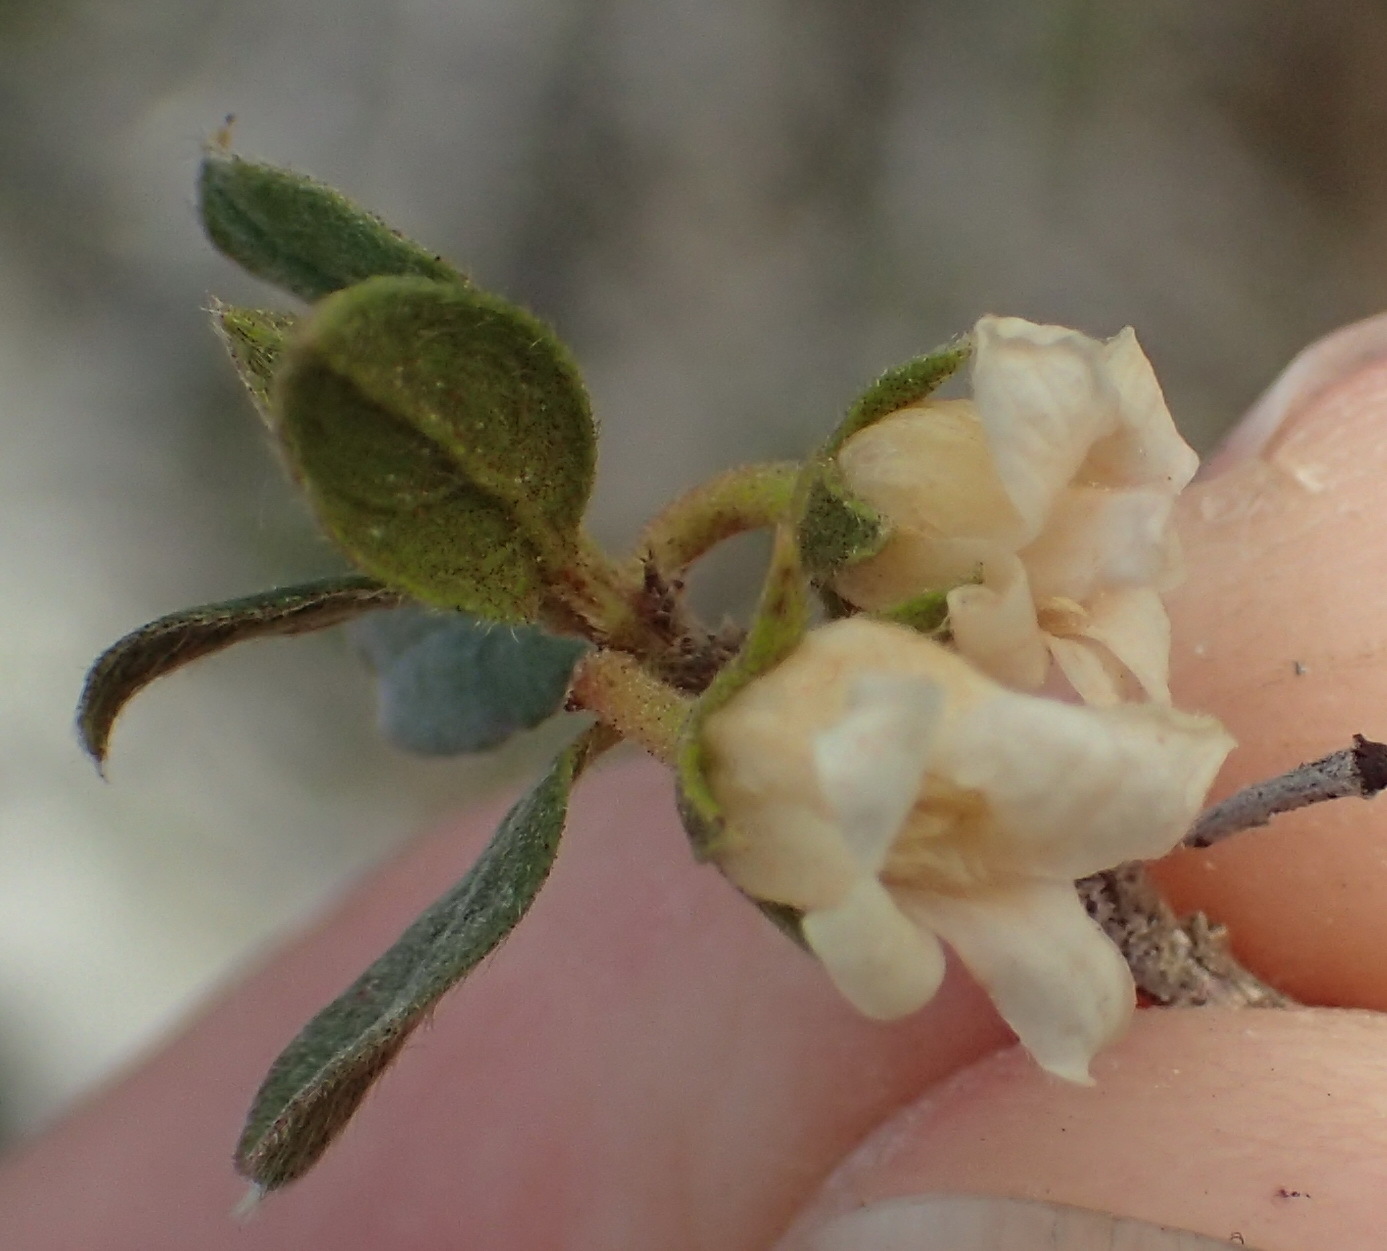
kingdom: Plantae
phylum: Tracheophyta
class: Magnoliopsida
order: Ericales
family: Ebenaceae
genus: Diospyros
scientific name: Diospyros pubescens
